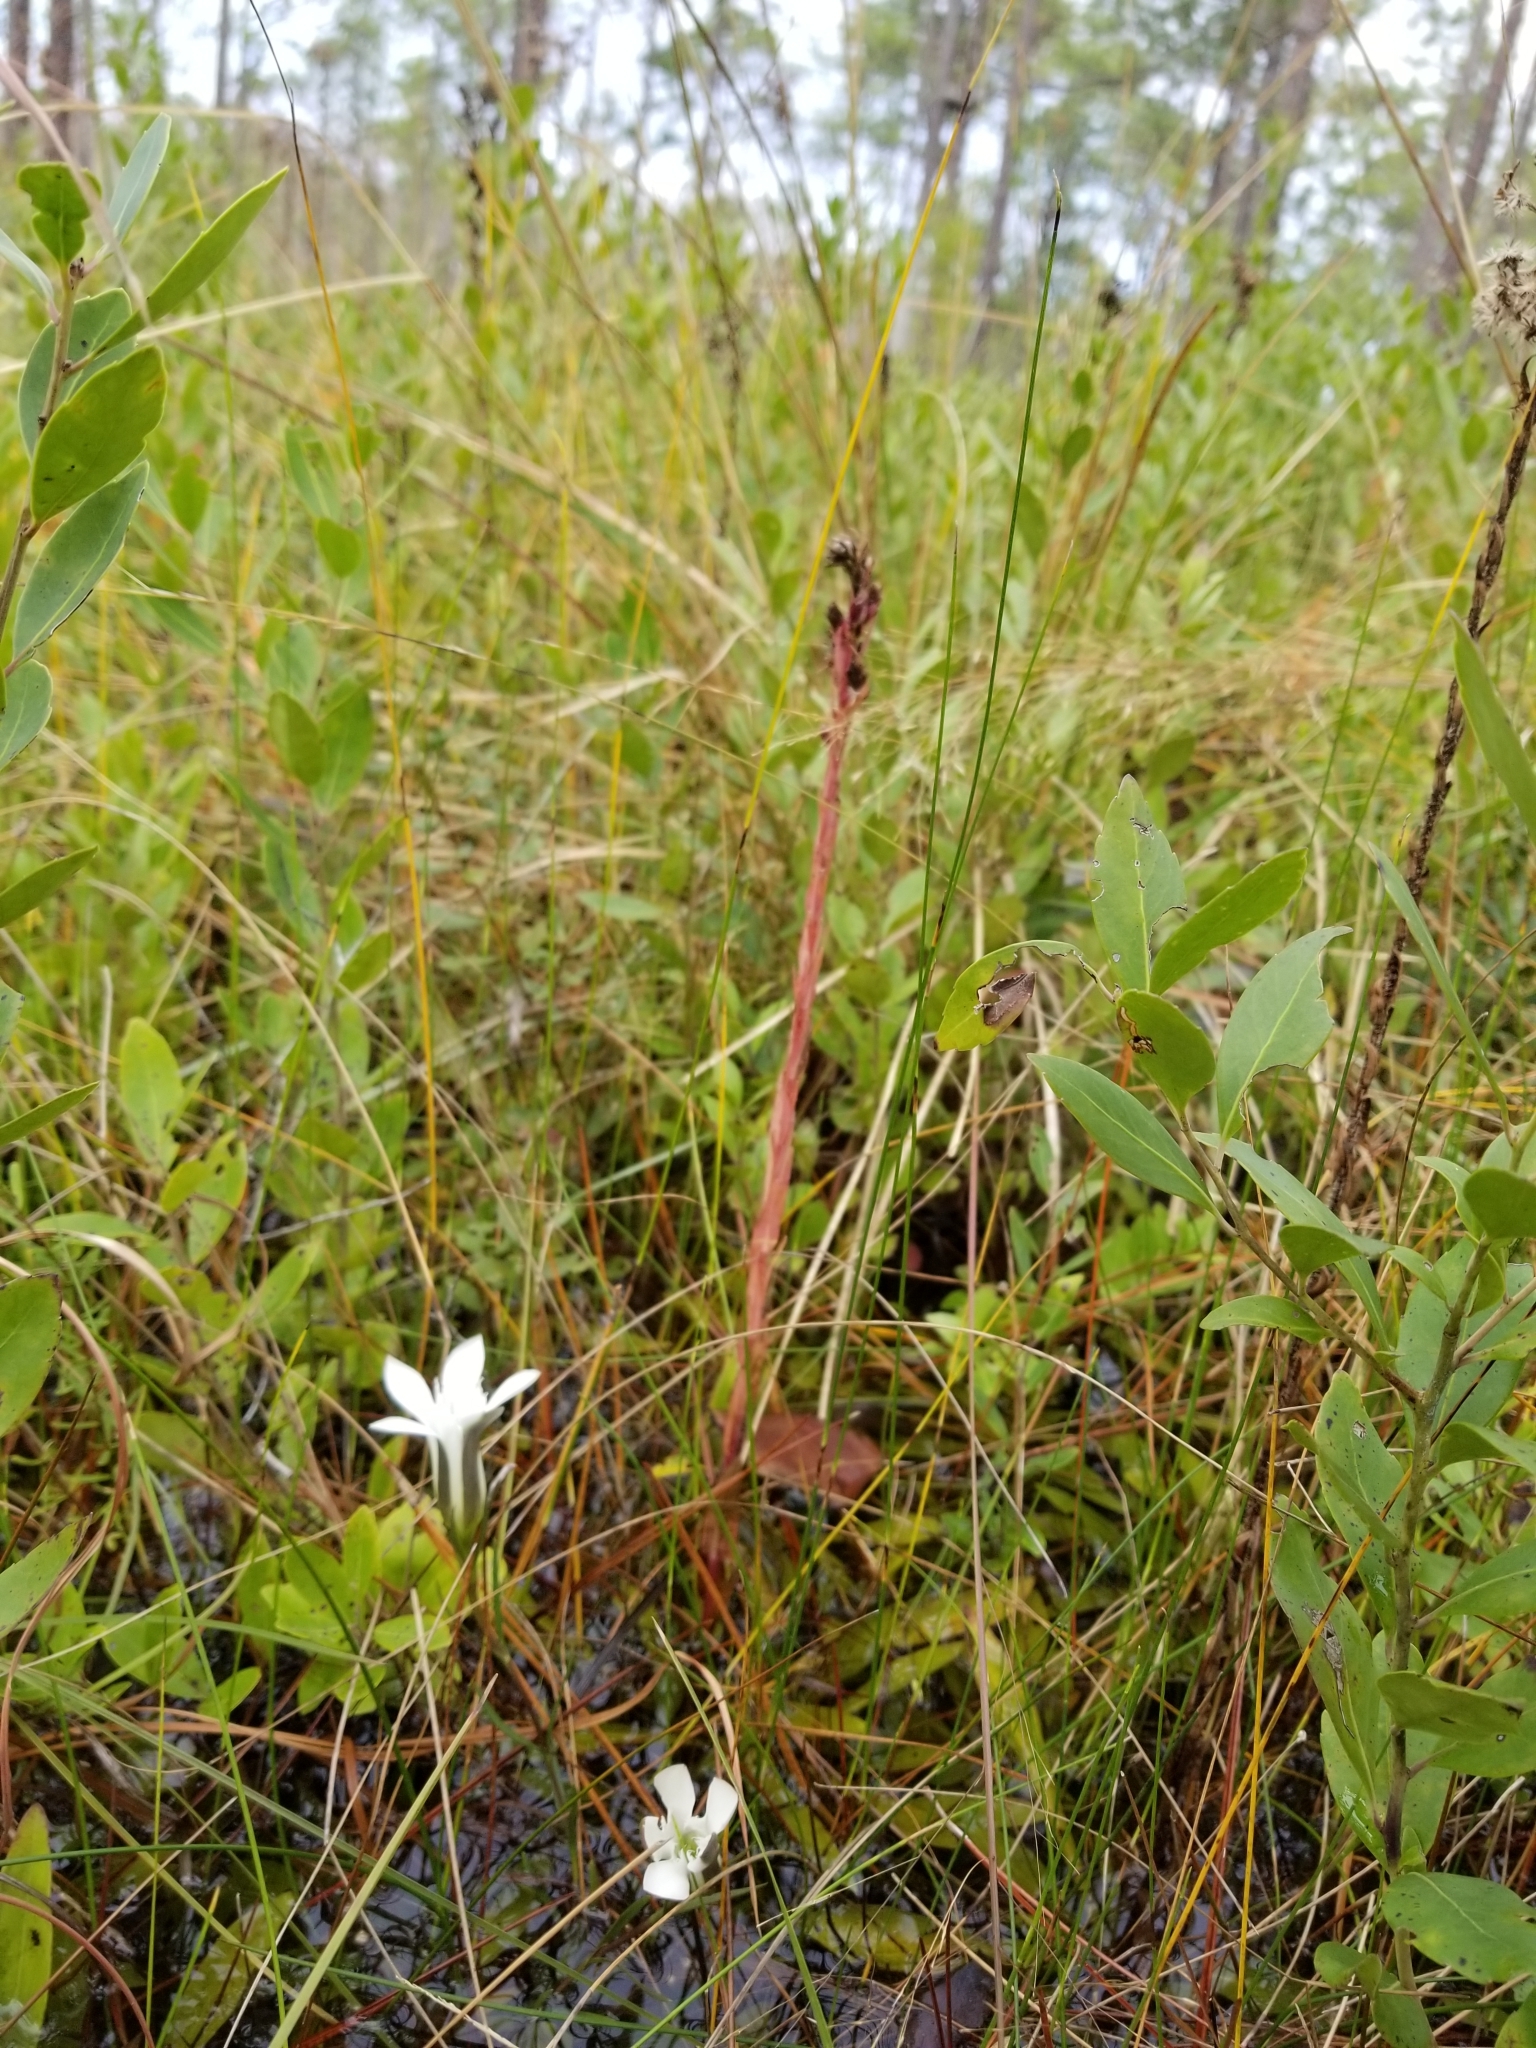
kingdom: Plantae
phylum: Tracheophyta
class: Magnoliopsida
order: Gentianales
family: Gentianaceae
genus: Gentiana
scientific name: Gentiana pennelliana
